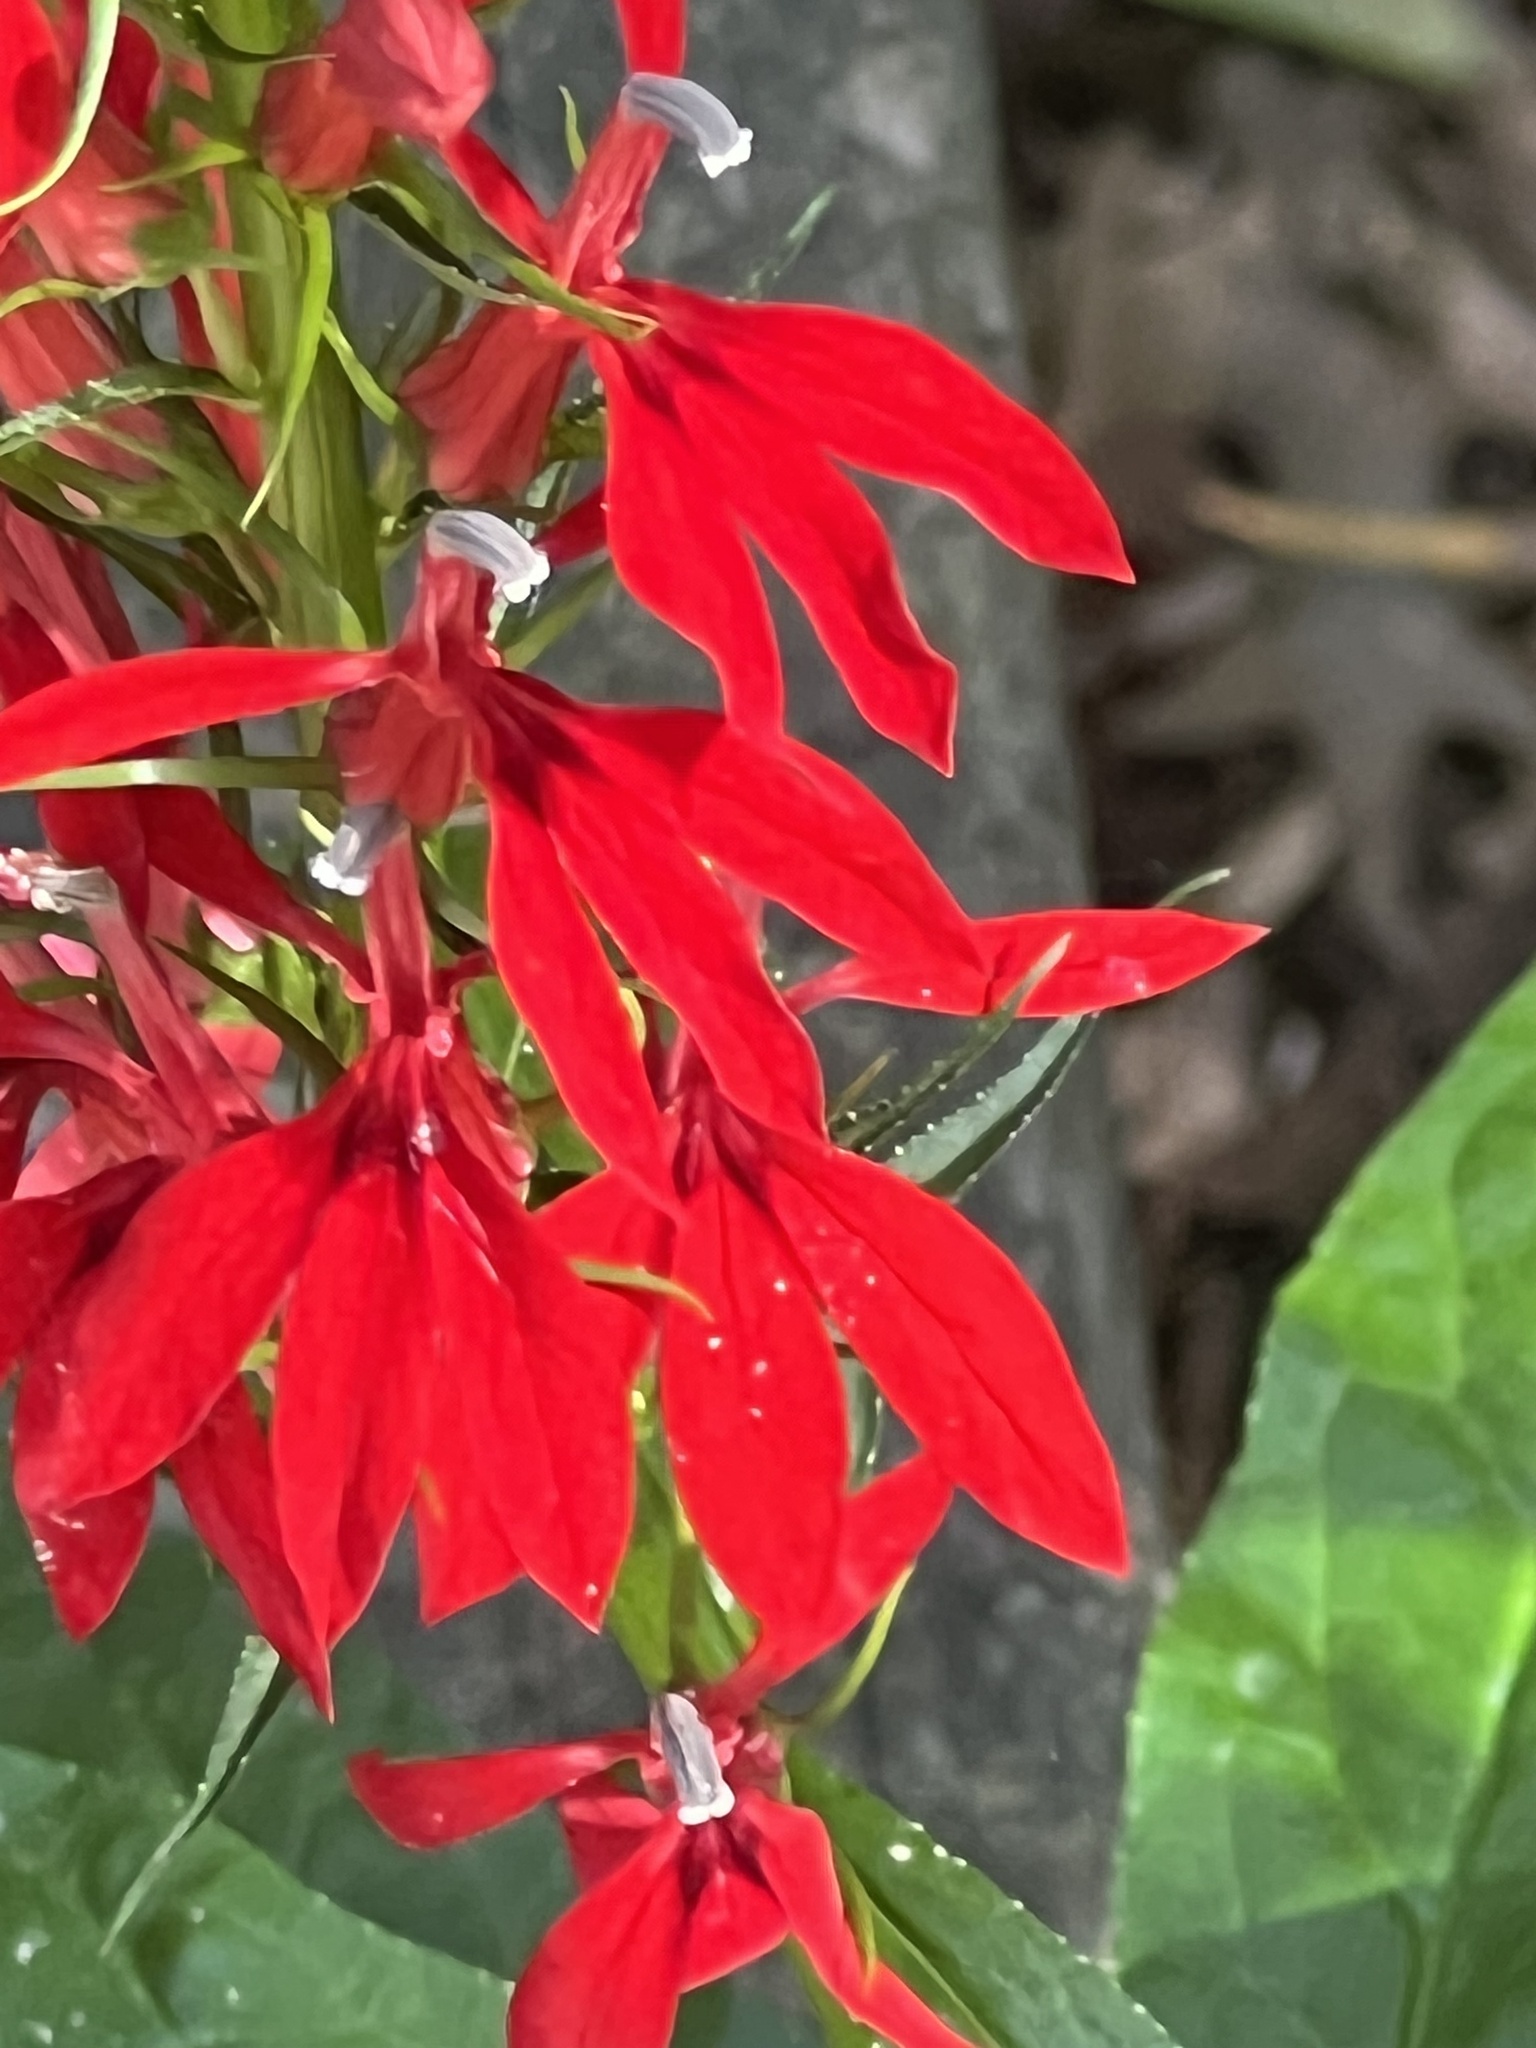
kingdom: Plantae
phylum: Tracheophyta
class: Magnoliopsida
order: Asterales
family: Campanulaceae
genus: Lobelia
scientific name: Lobelia cardinalis
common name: Cardinal flower
